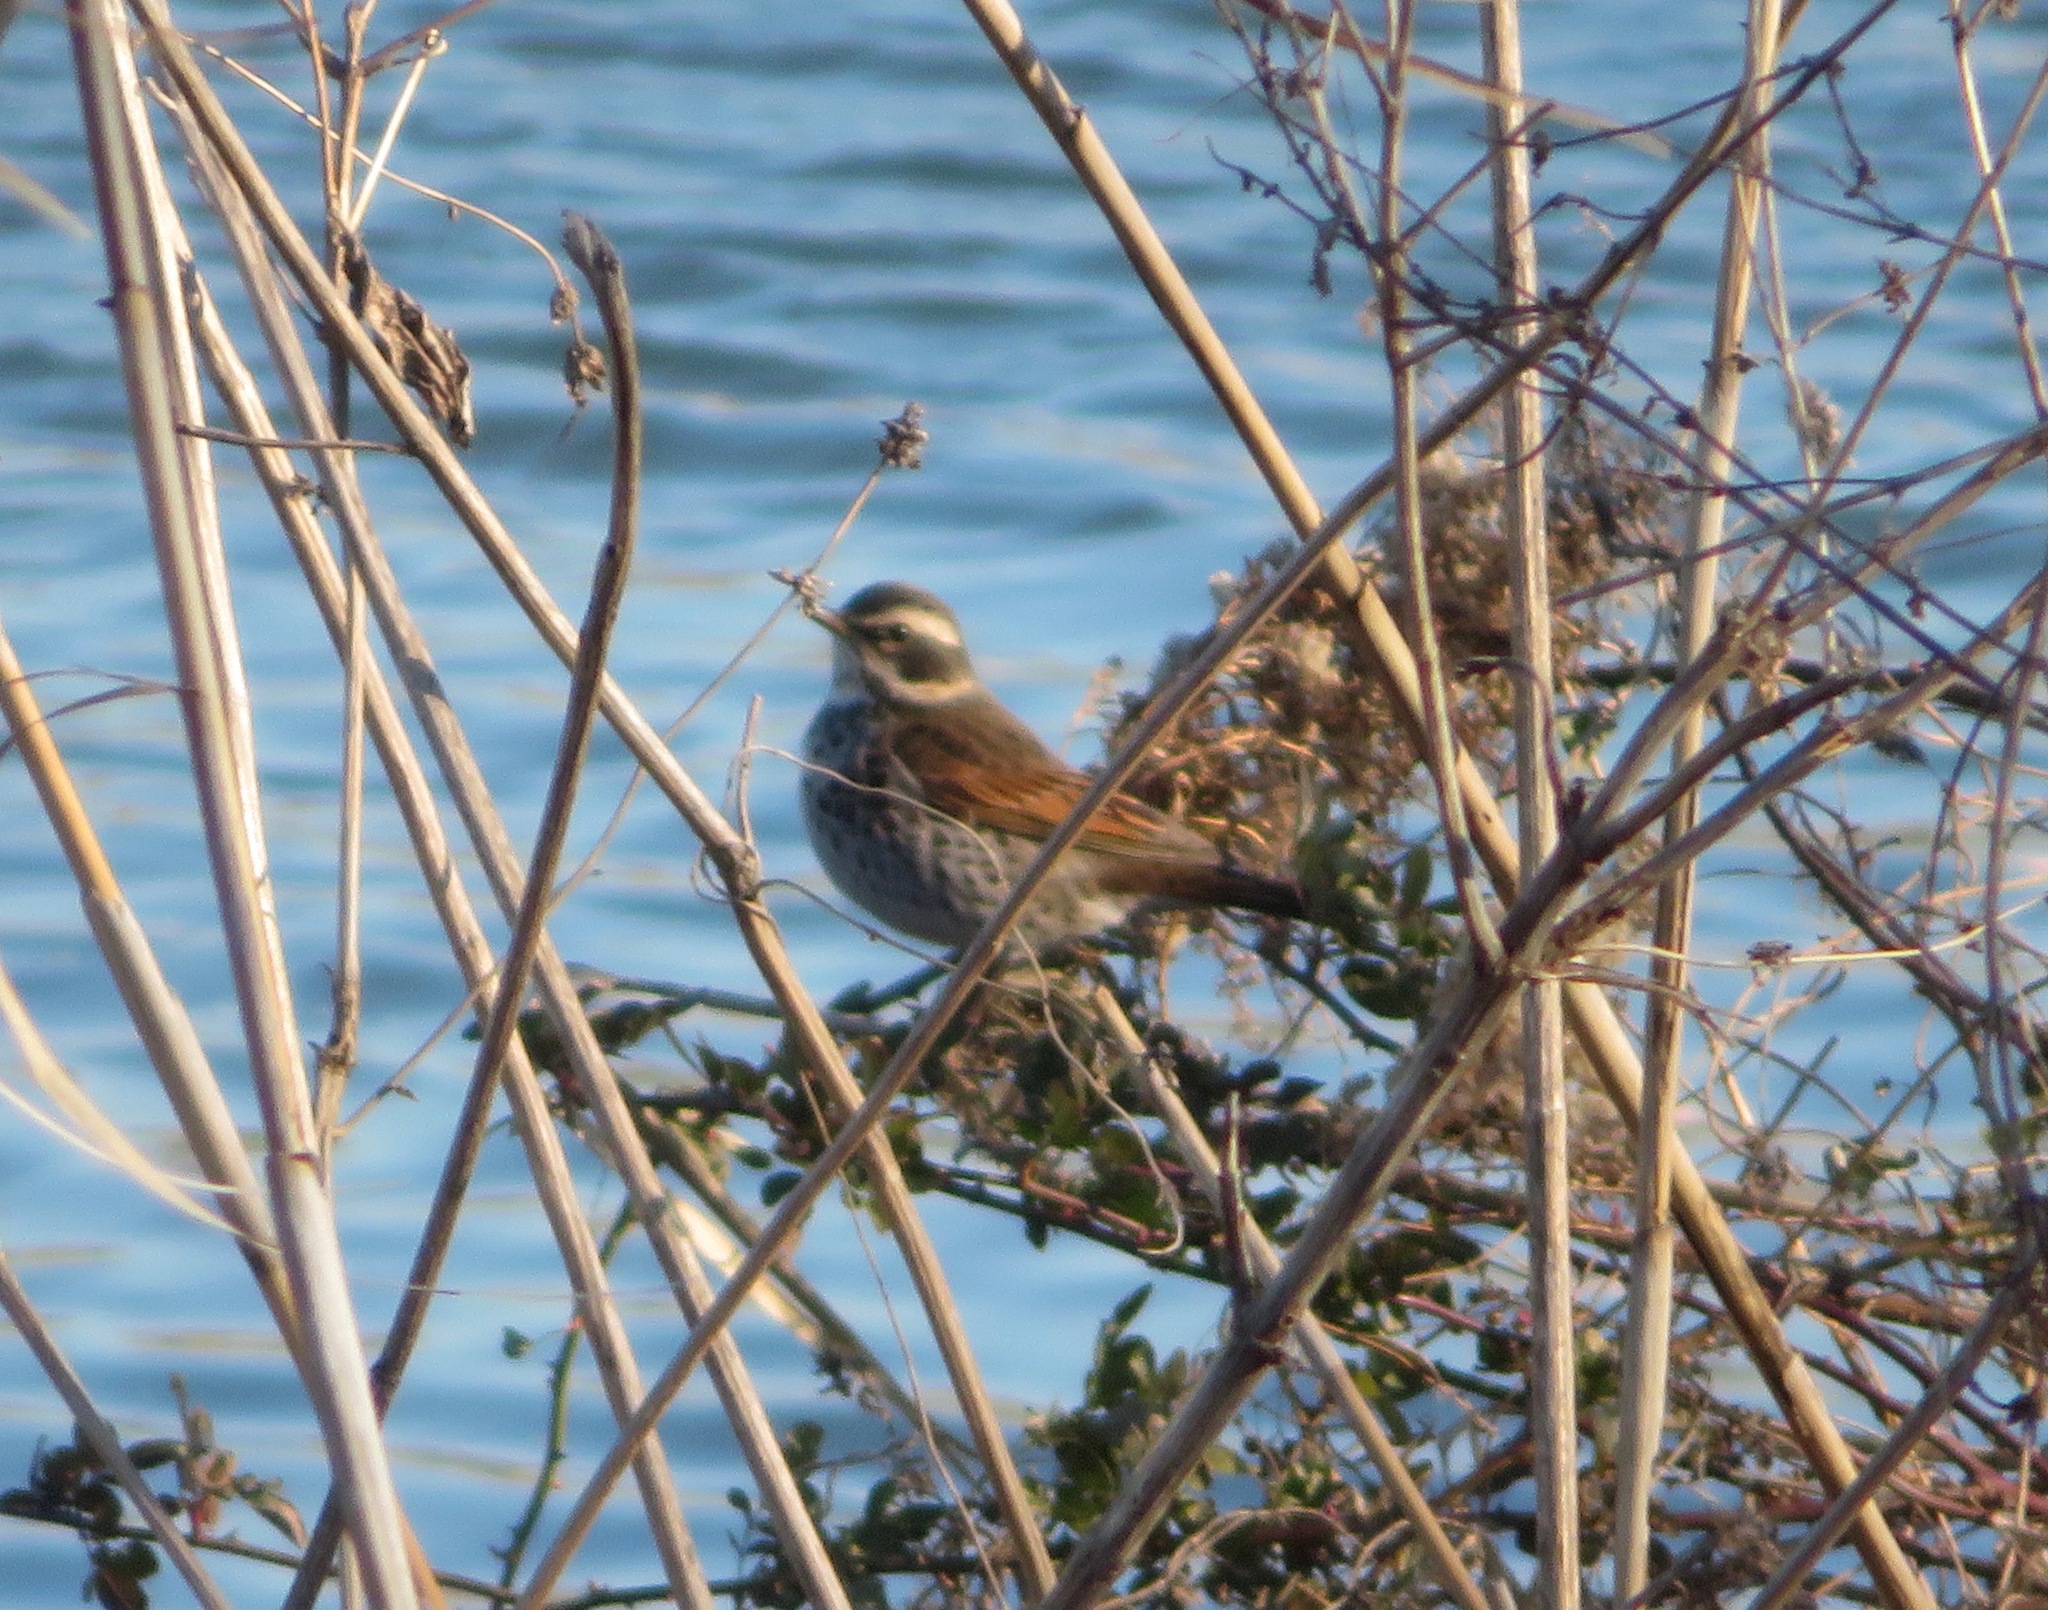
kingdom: Animalia
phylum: Chordata
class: Aves
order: Passeriformes
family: Turdidae
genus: Turdus
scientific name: Turdus eunomus
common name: Dusky thrush
